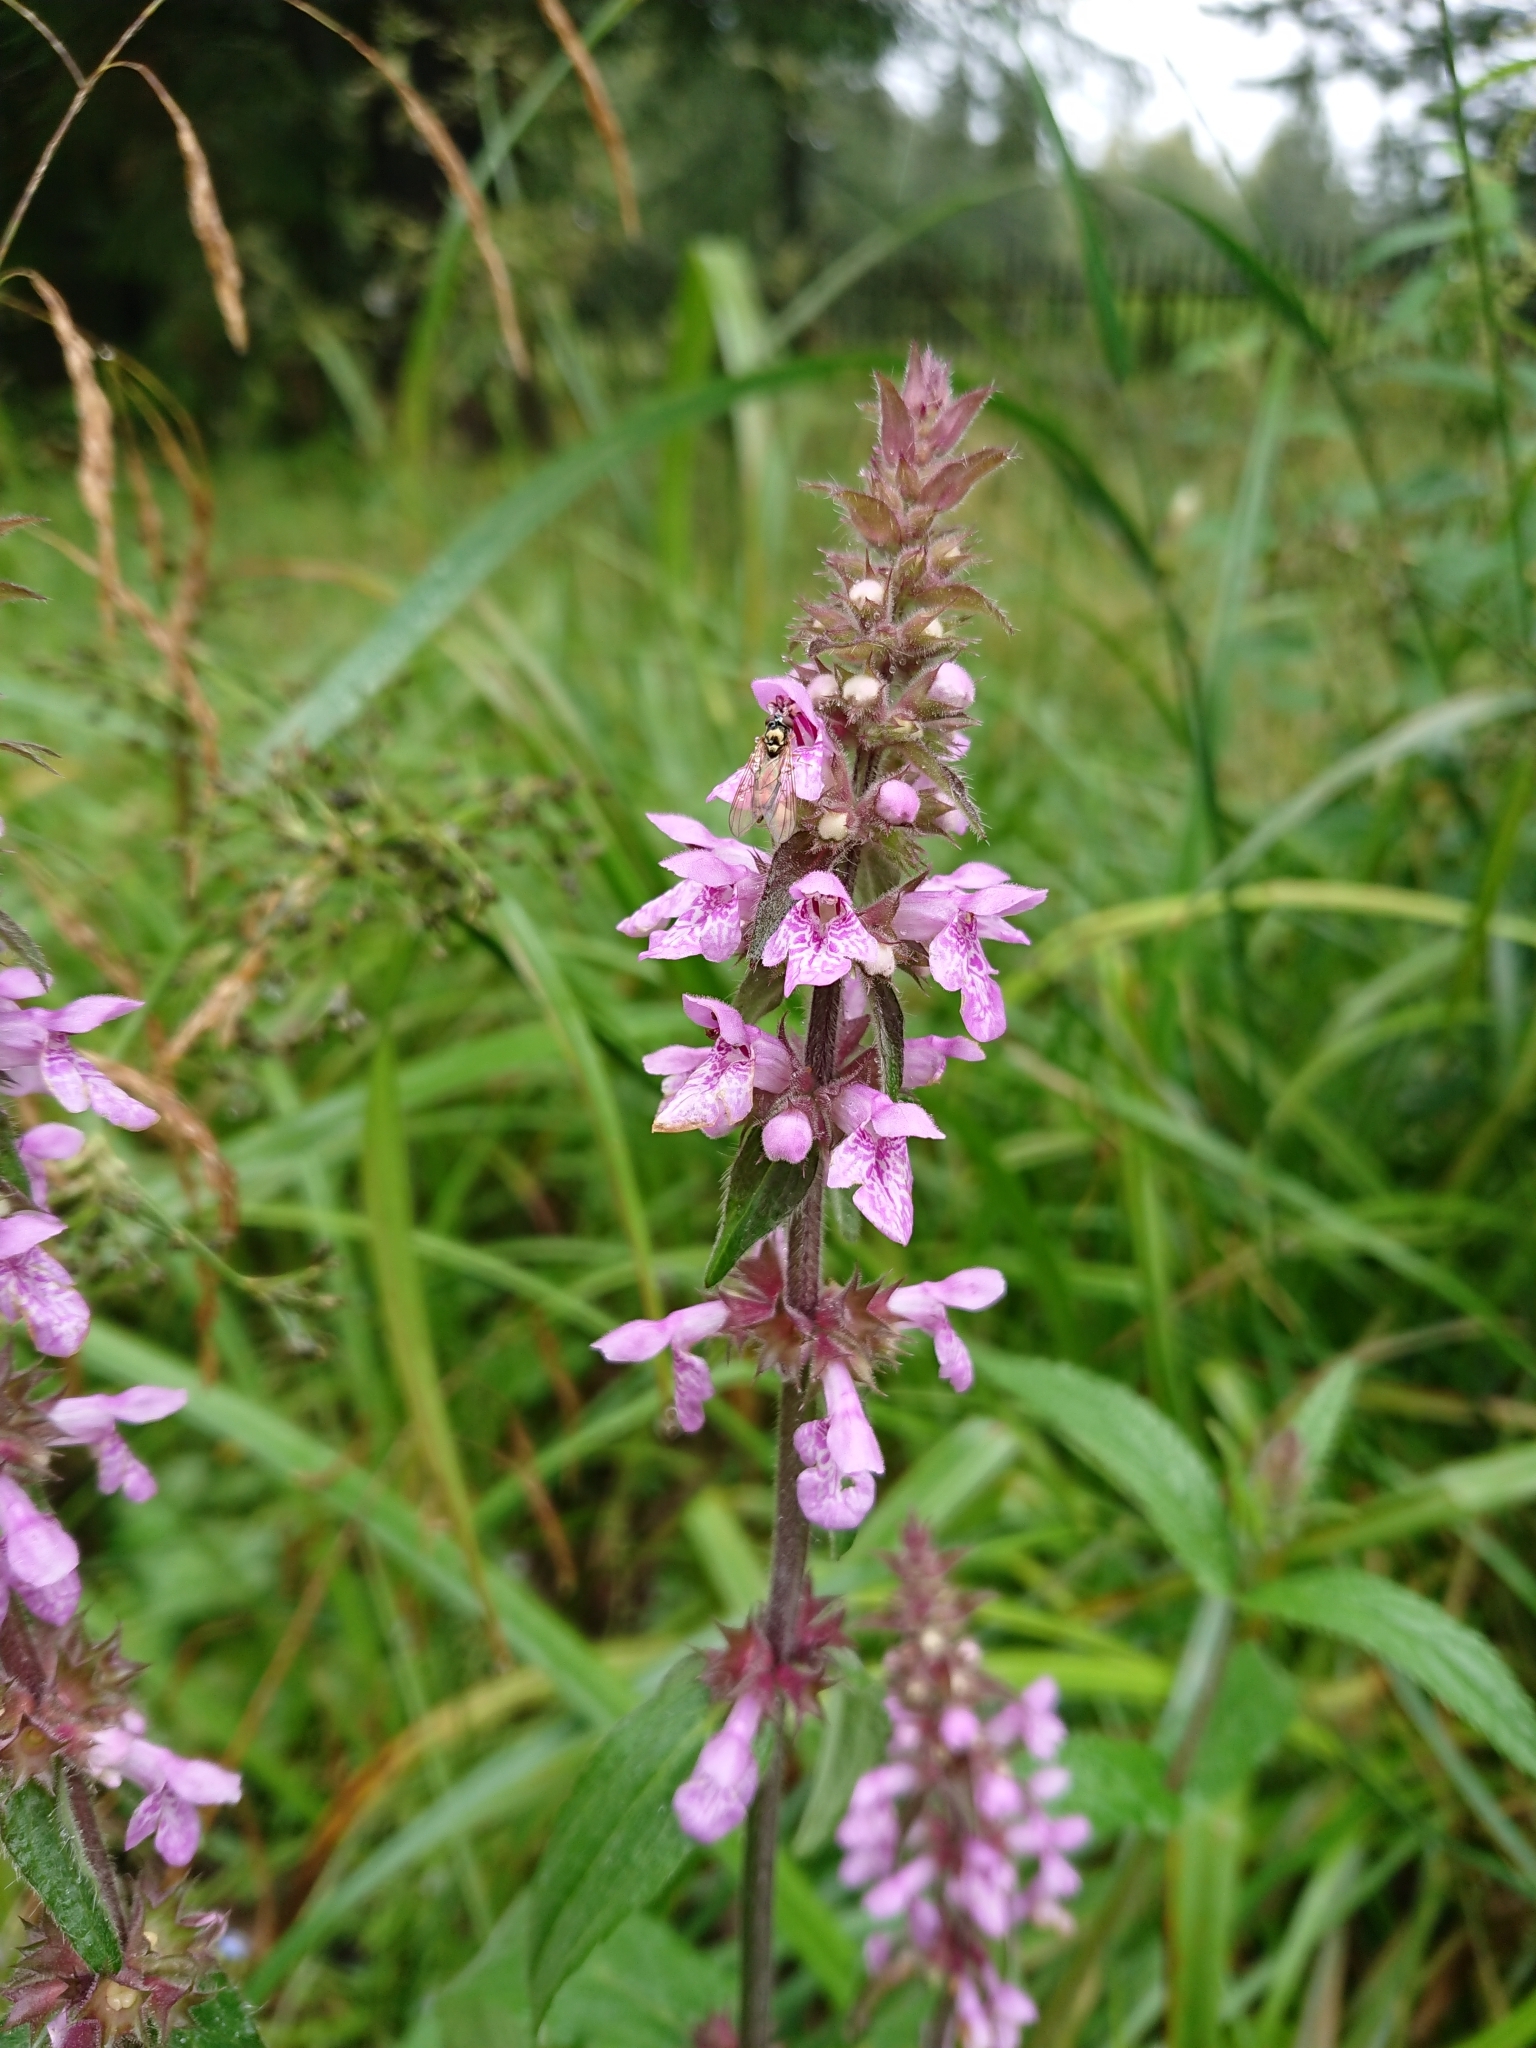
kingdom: Plantae
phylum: Tracheophyta
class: Magnoliopsida
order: Lamiales
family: Lamiaceae
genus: Stachys
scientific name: Stachys palustris
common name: Marsh woundwort
